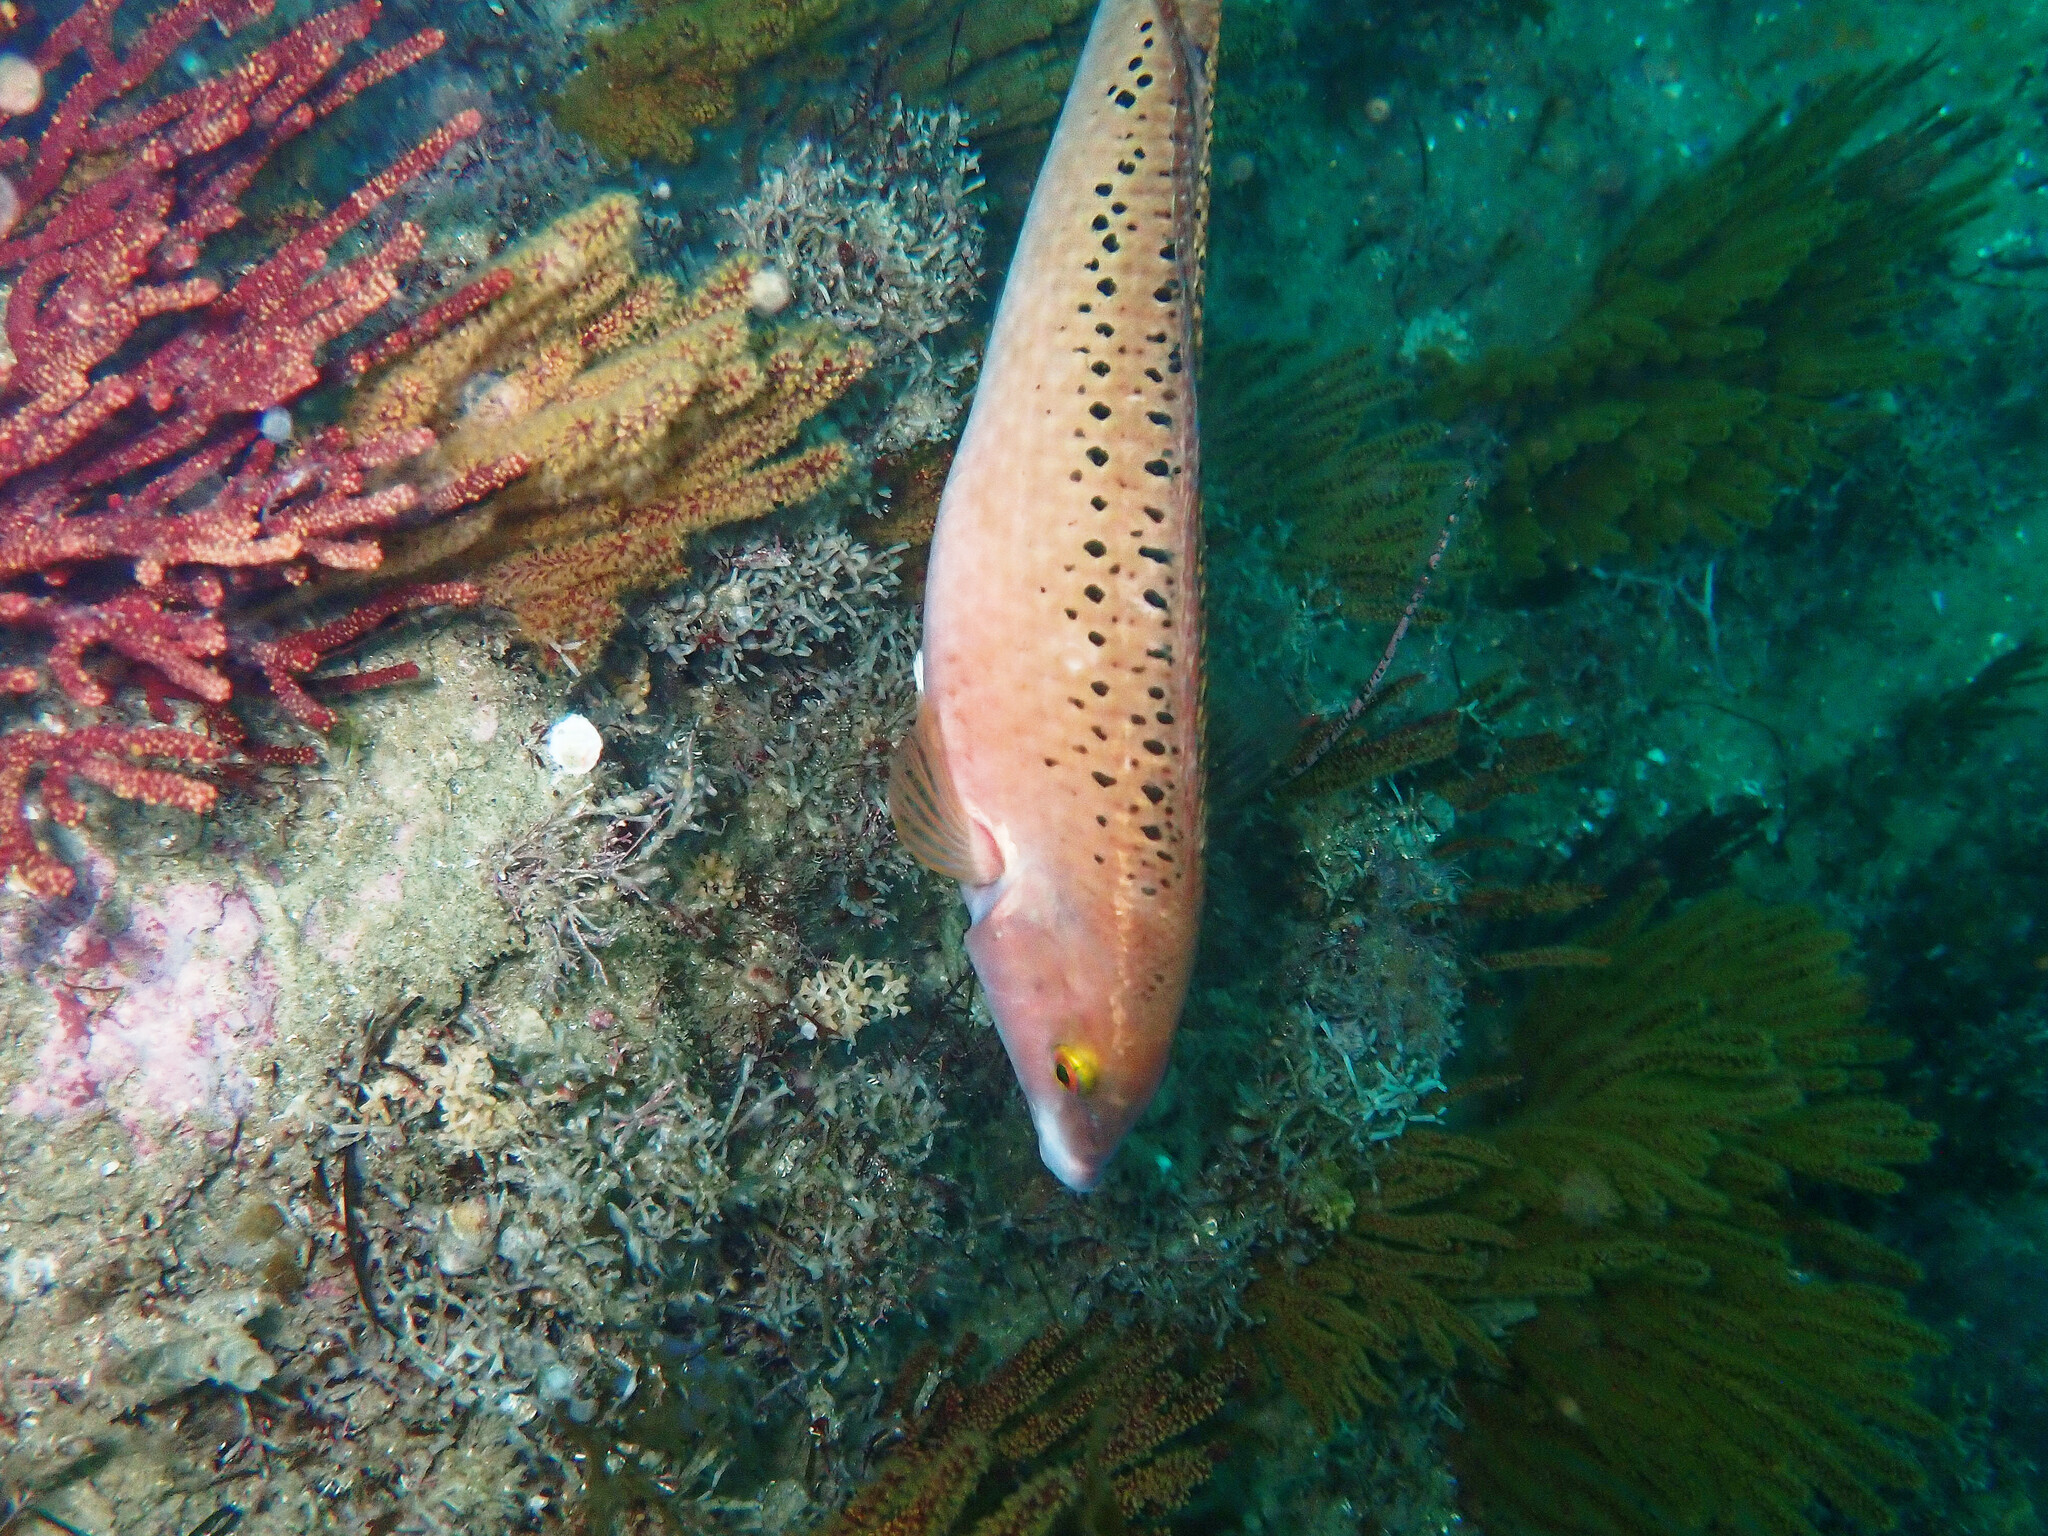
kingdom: Animalia
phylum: Chordata
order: Perciformes
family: Labridae
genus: Halichoeres
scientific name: Halichoeres semicinctus
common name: Rock wrasse
